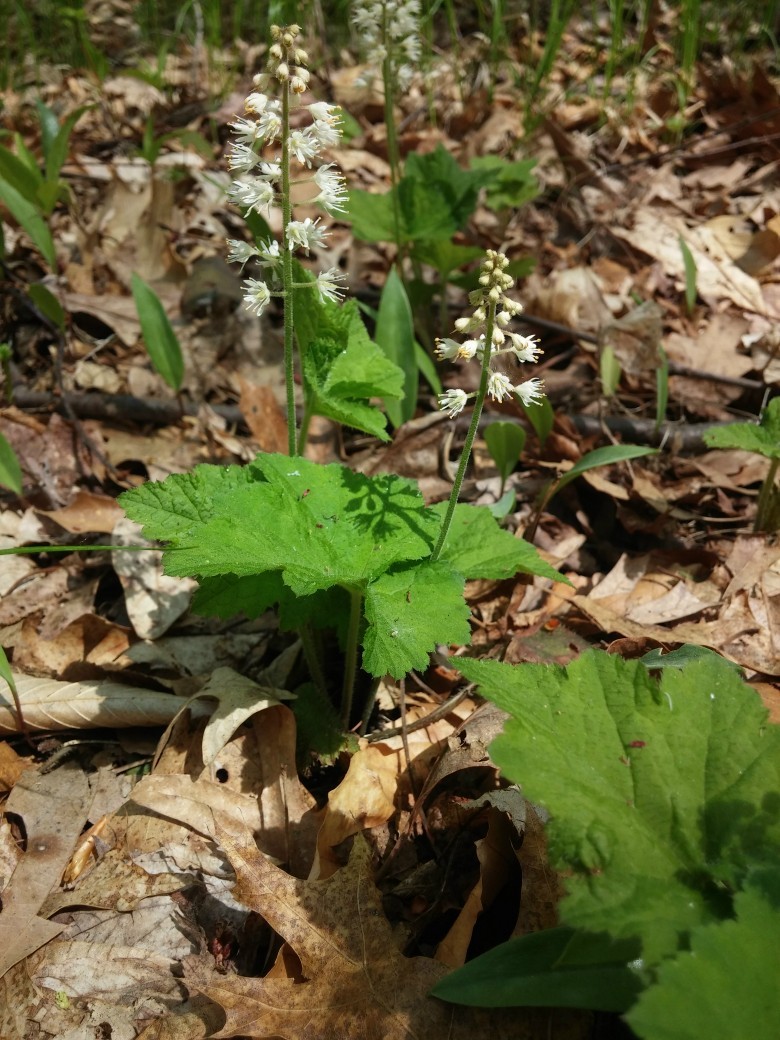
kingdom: Plantae
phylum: Tracheophyta
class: Magnoliopsida
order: Saxifragales
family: Saxifragaceae
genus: Tiarella
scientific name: Tiarella stolonifera
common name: Stoloniferous foamflower
